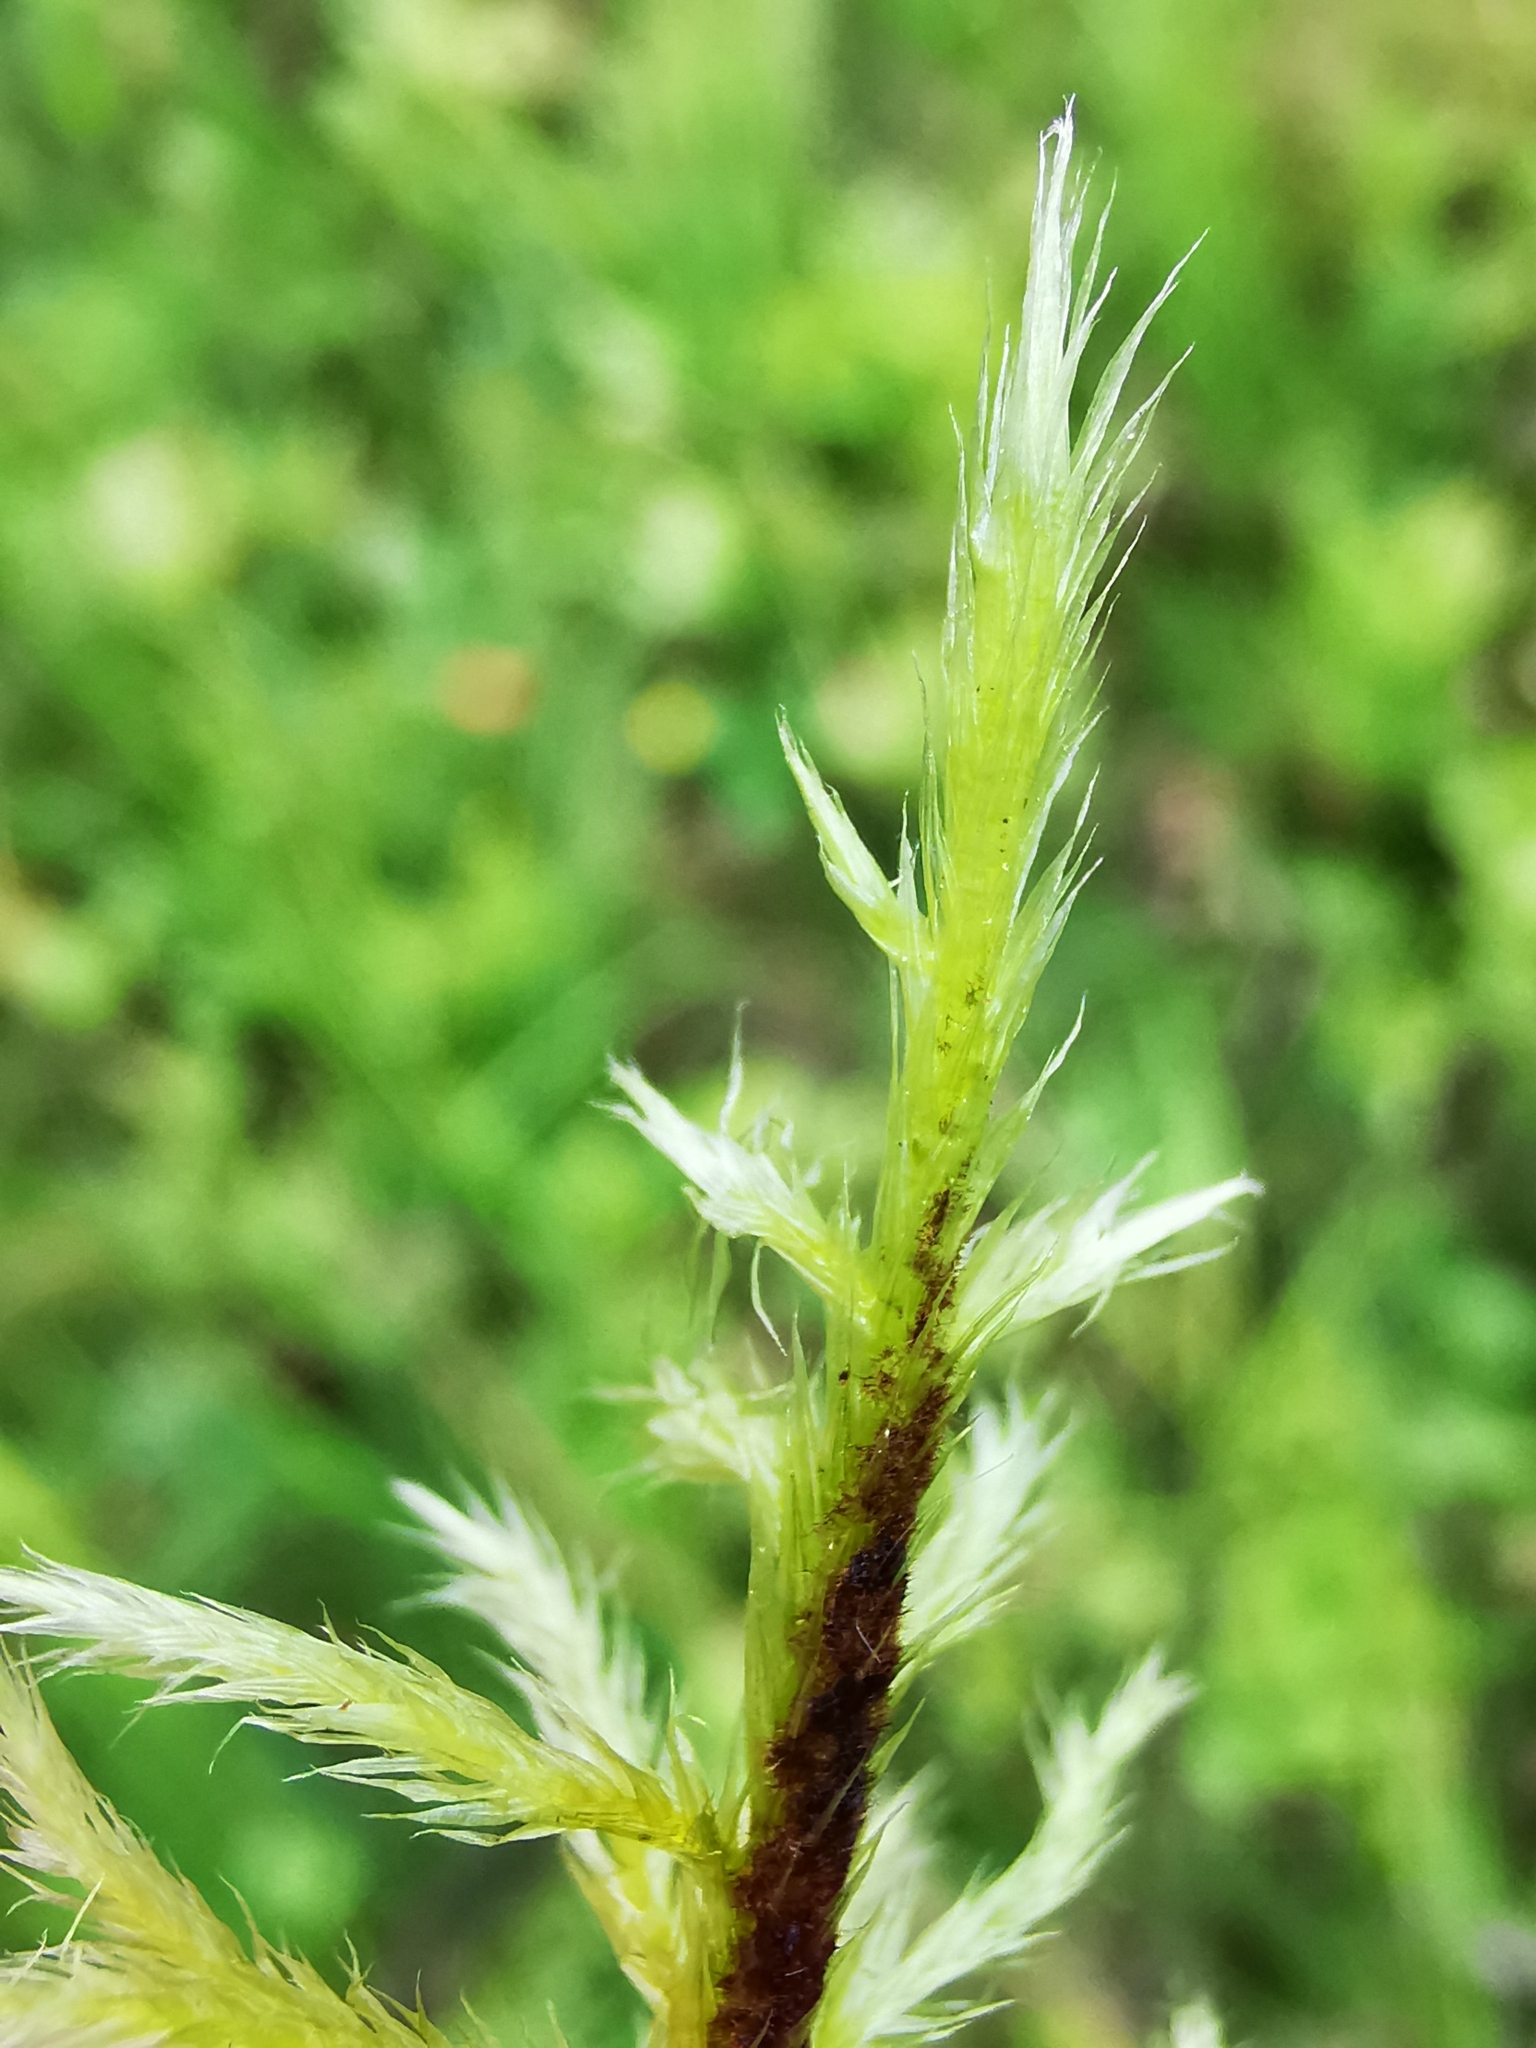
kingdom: Plantae
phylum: Bryophyta
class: Bryopsida
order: Hypnales
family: Amblystegiaceae
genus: Tomentypnum
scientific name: Tomentypnum nitens
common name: Golden fuzzy fen moss
